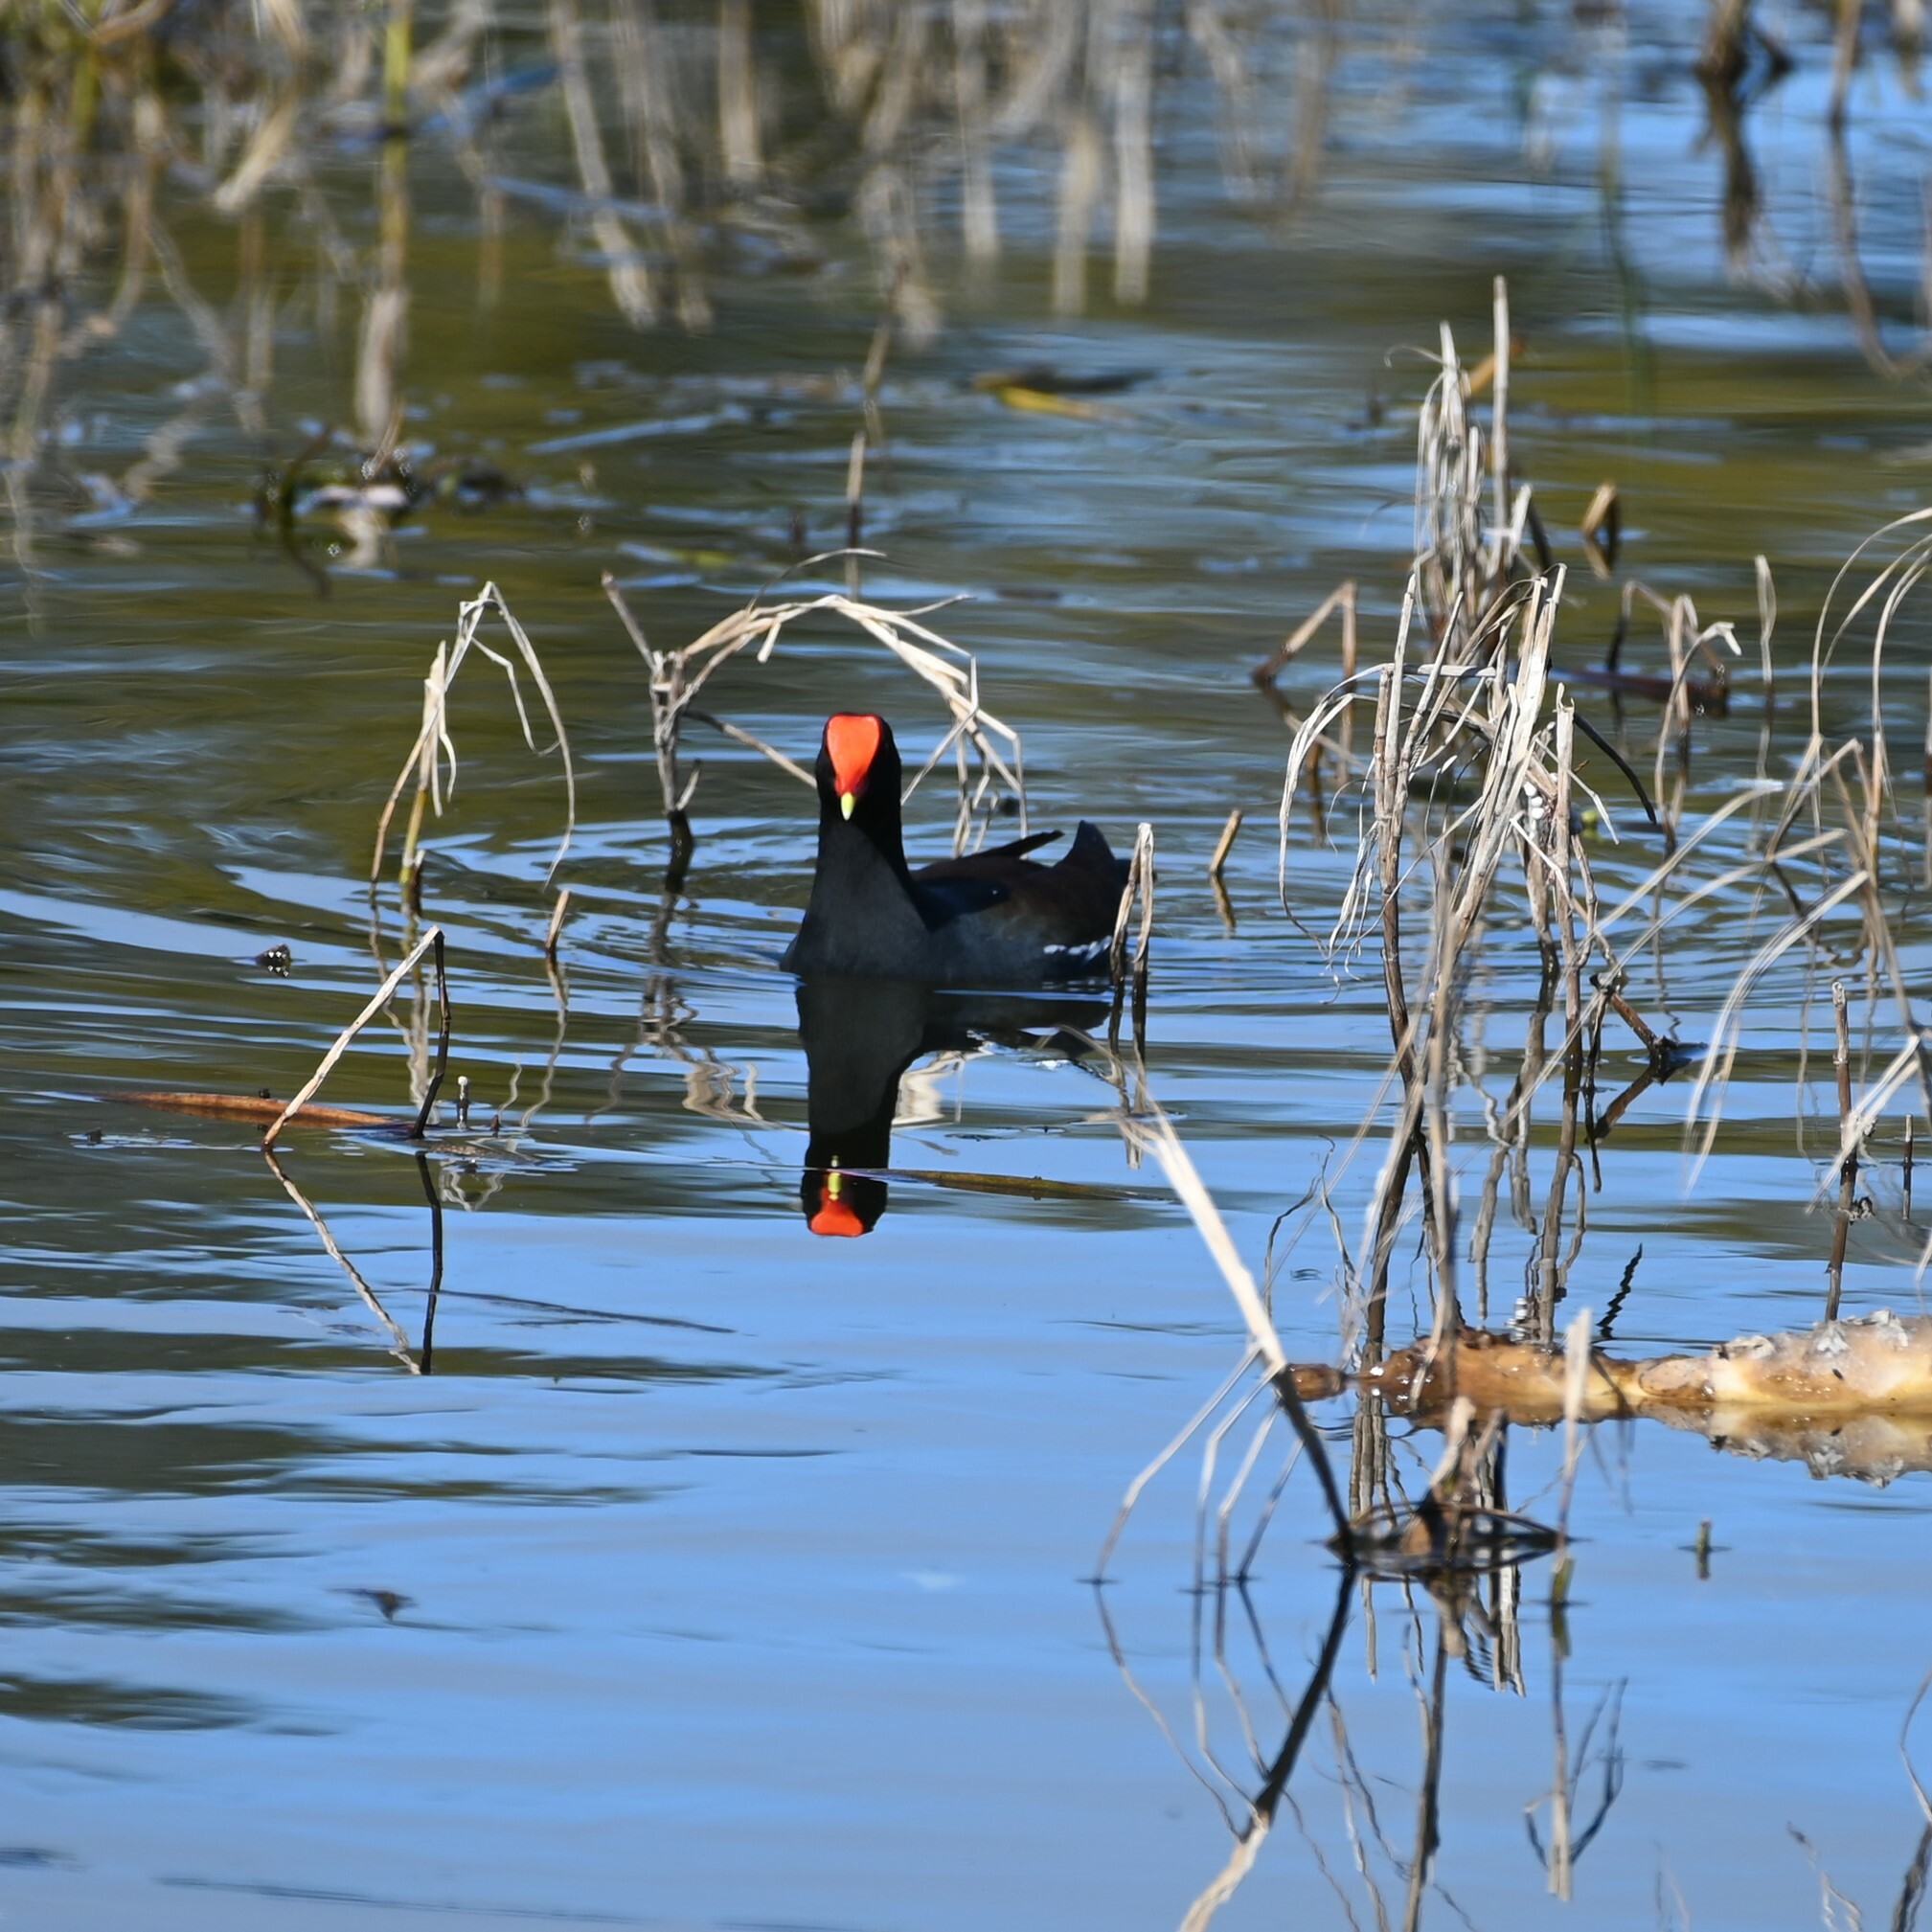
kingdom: Animalia
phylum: Chordata
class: Aves
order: Gruiformes
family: Rallidae
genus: Gallinula
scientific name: Gallinula chloropus
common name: Common moorhen
